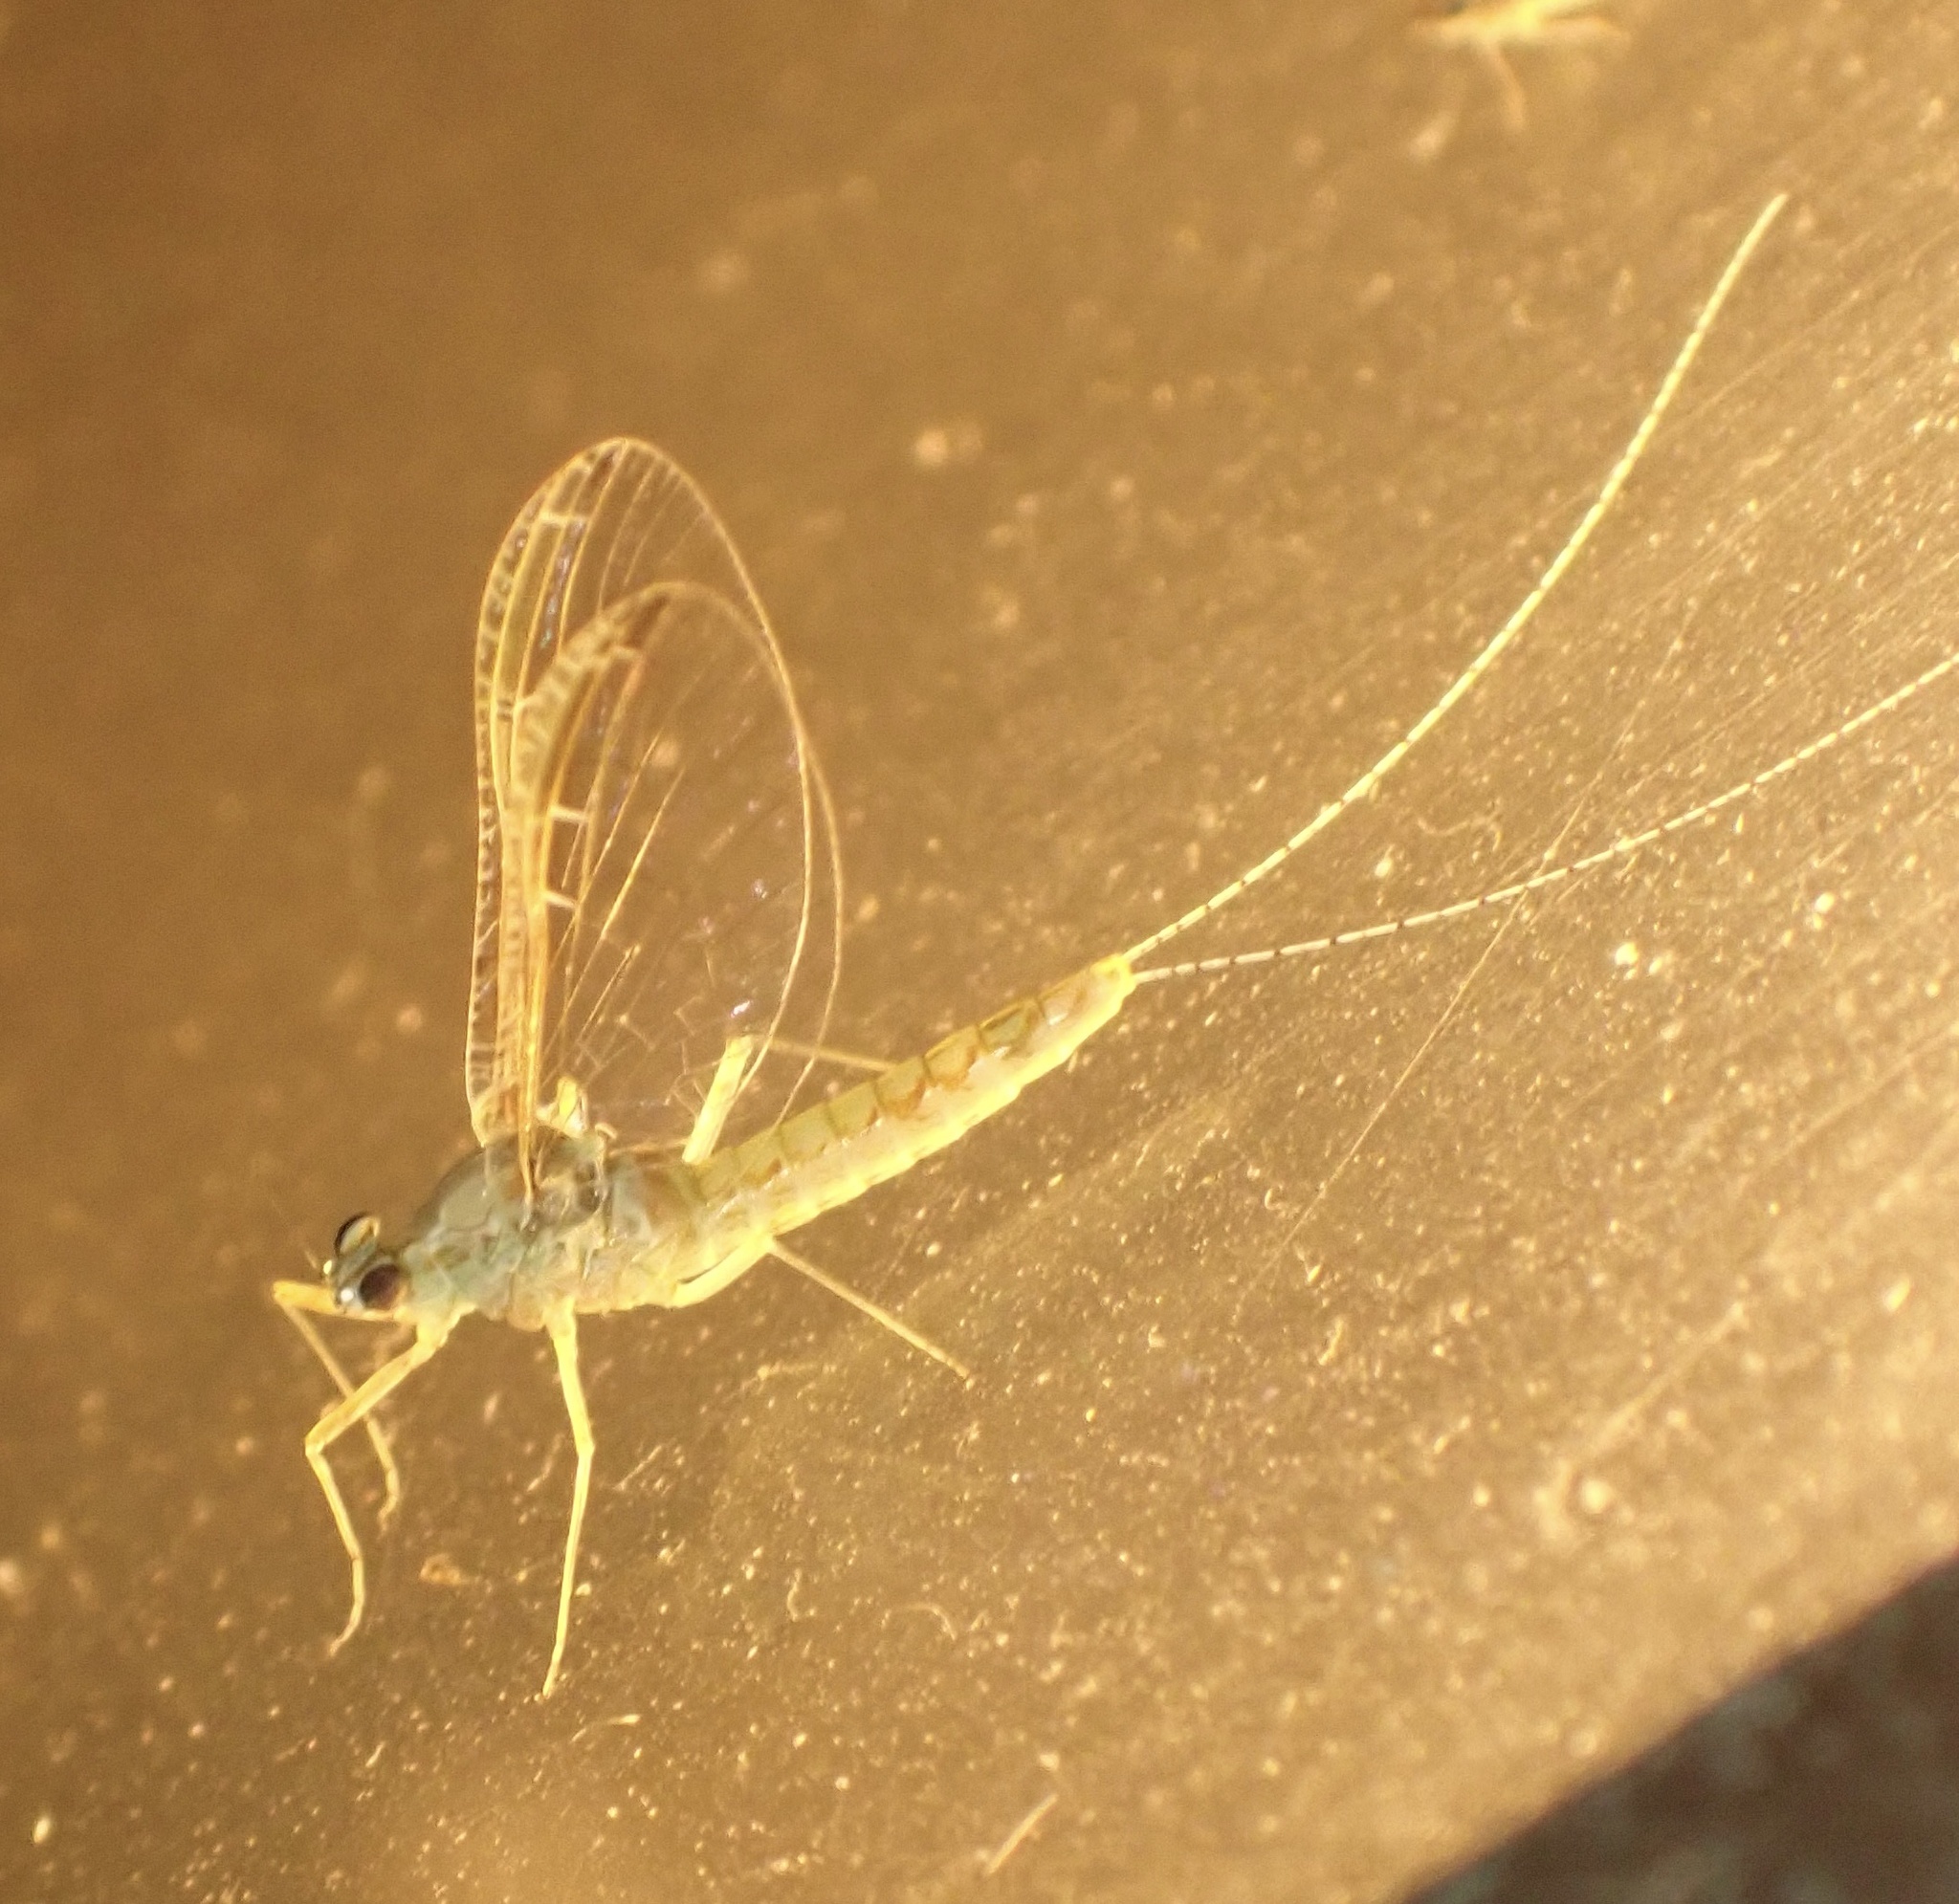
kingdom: Animalia
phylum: Arthropoda
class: Insecta
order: Ephemeroptera
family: Baetidae
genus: Cloeon
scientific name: Cloeon dipterum
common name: Pond olive
